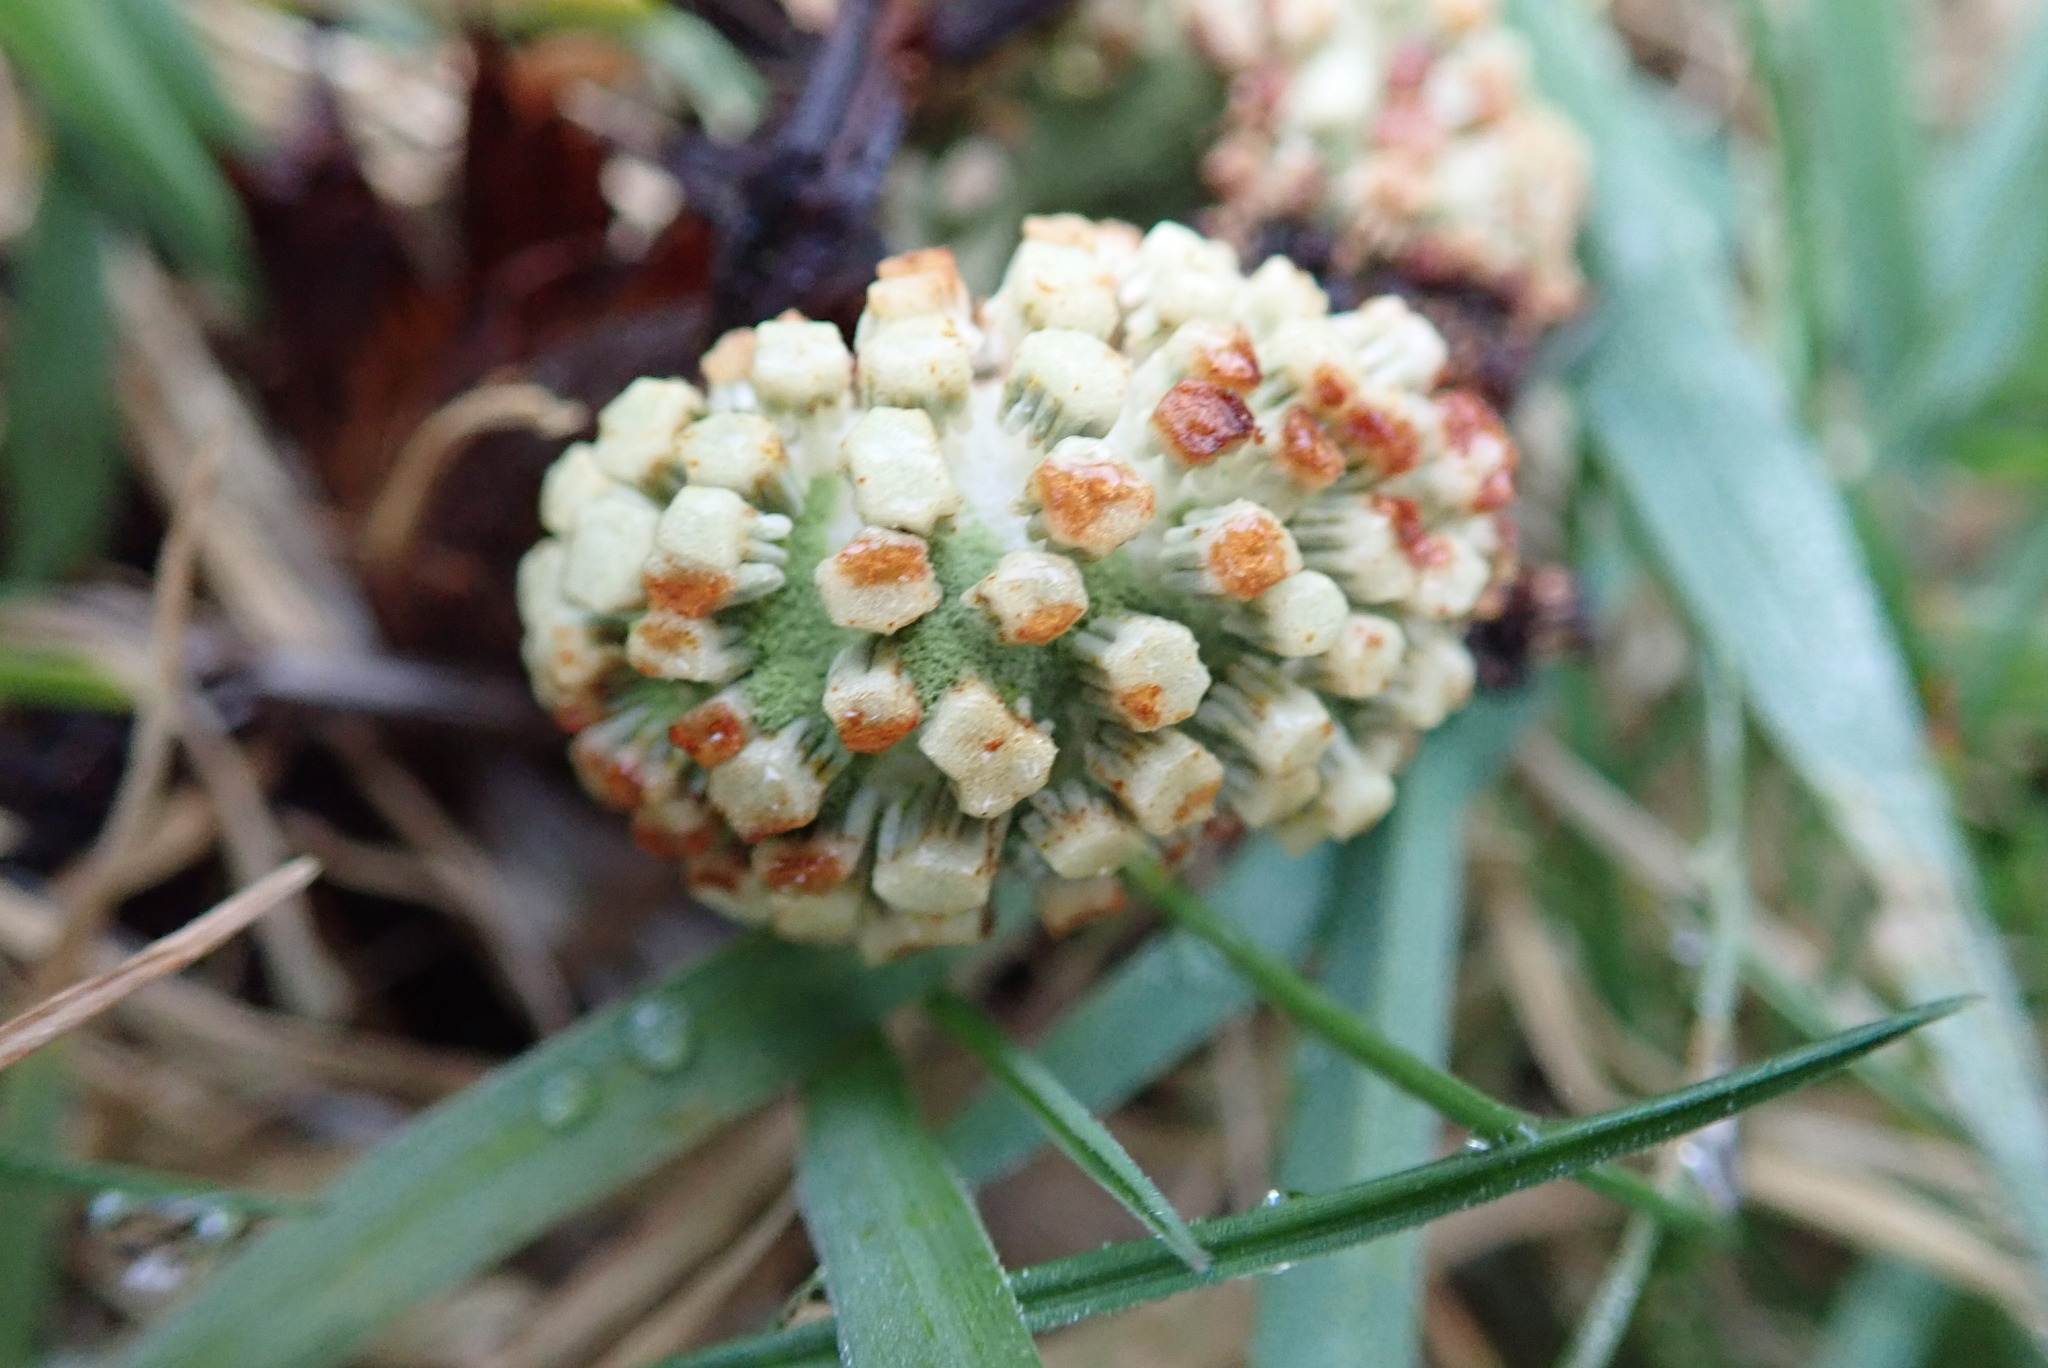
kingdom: Plantae
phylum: Tracheophyta
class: Polypodiopsida
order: Equisetales
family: Equisetaceae
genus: Equisetum
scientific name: Equisetum telmateia
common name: Great horsetail
